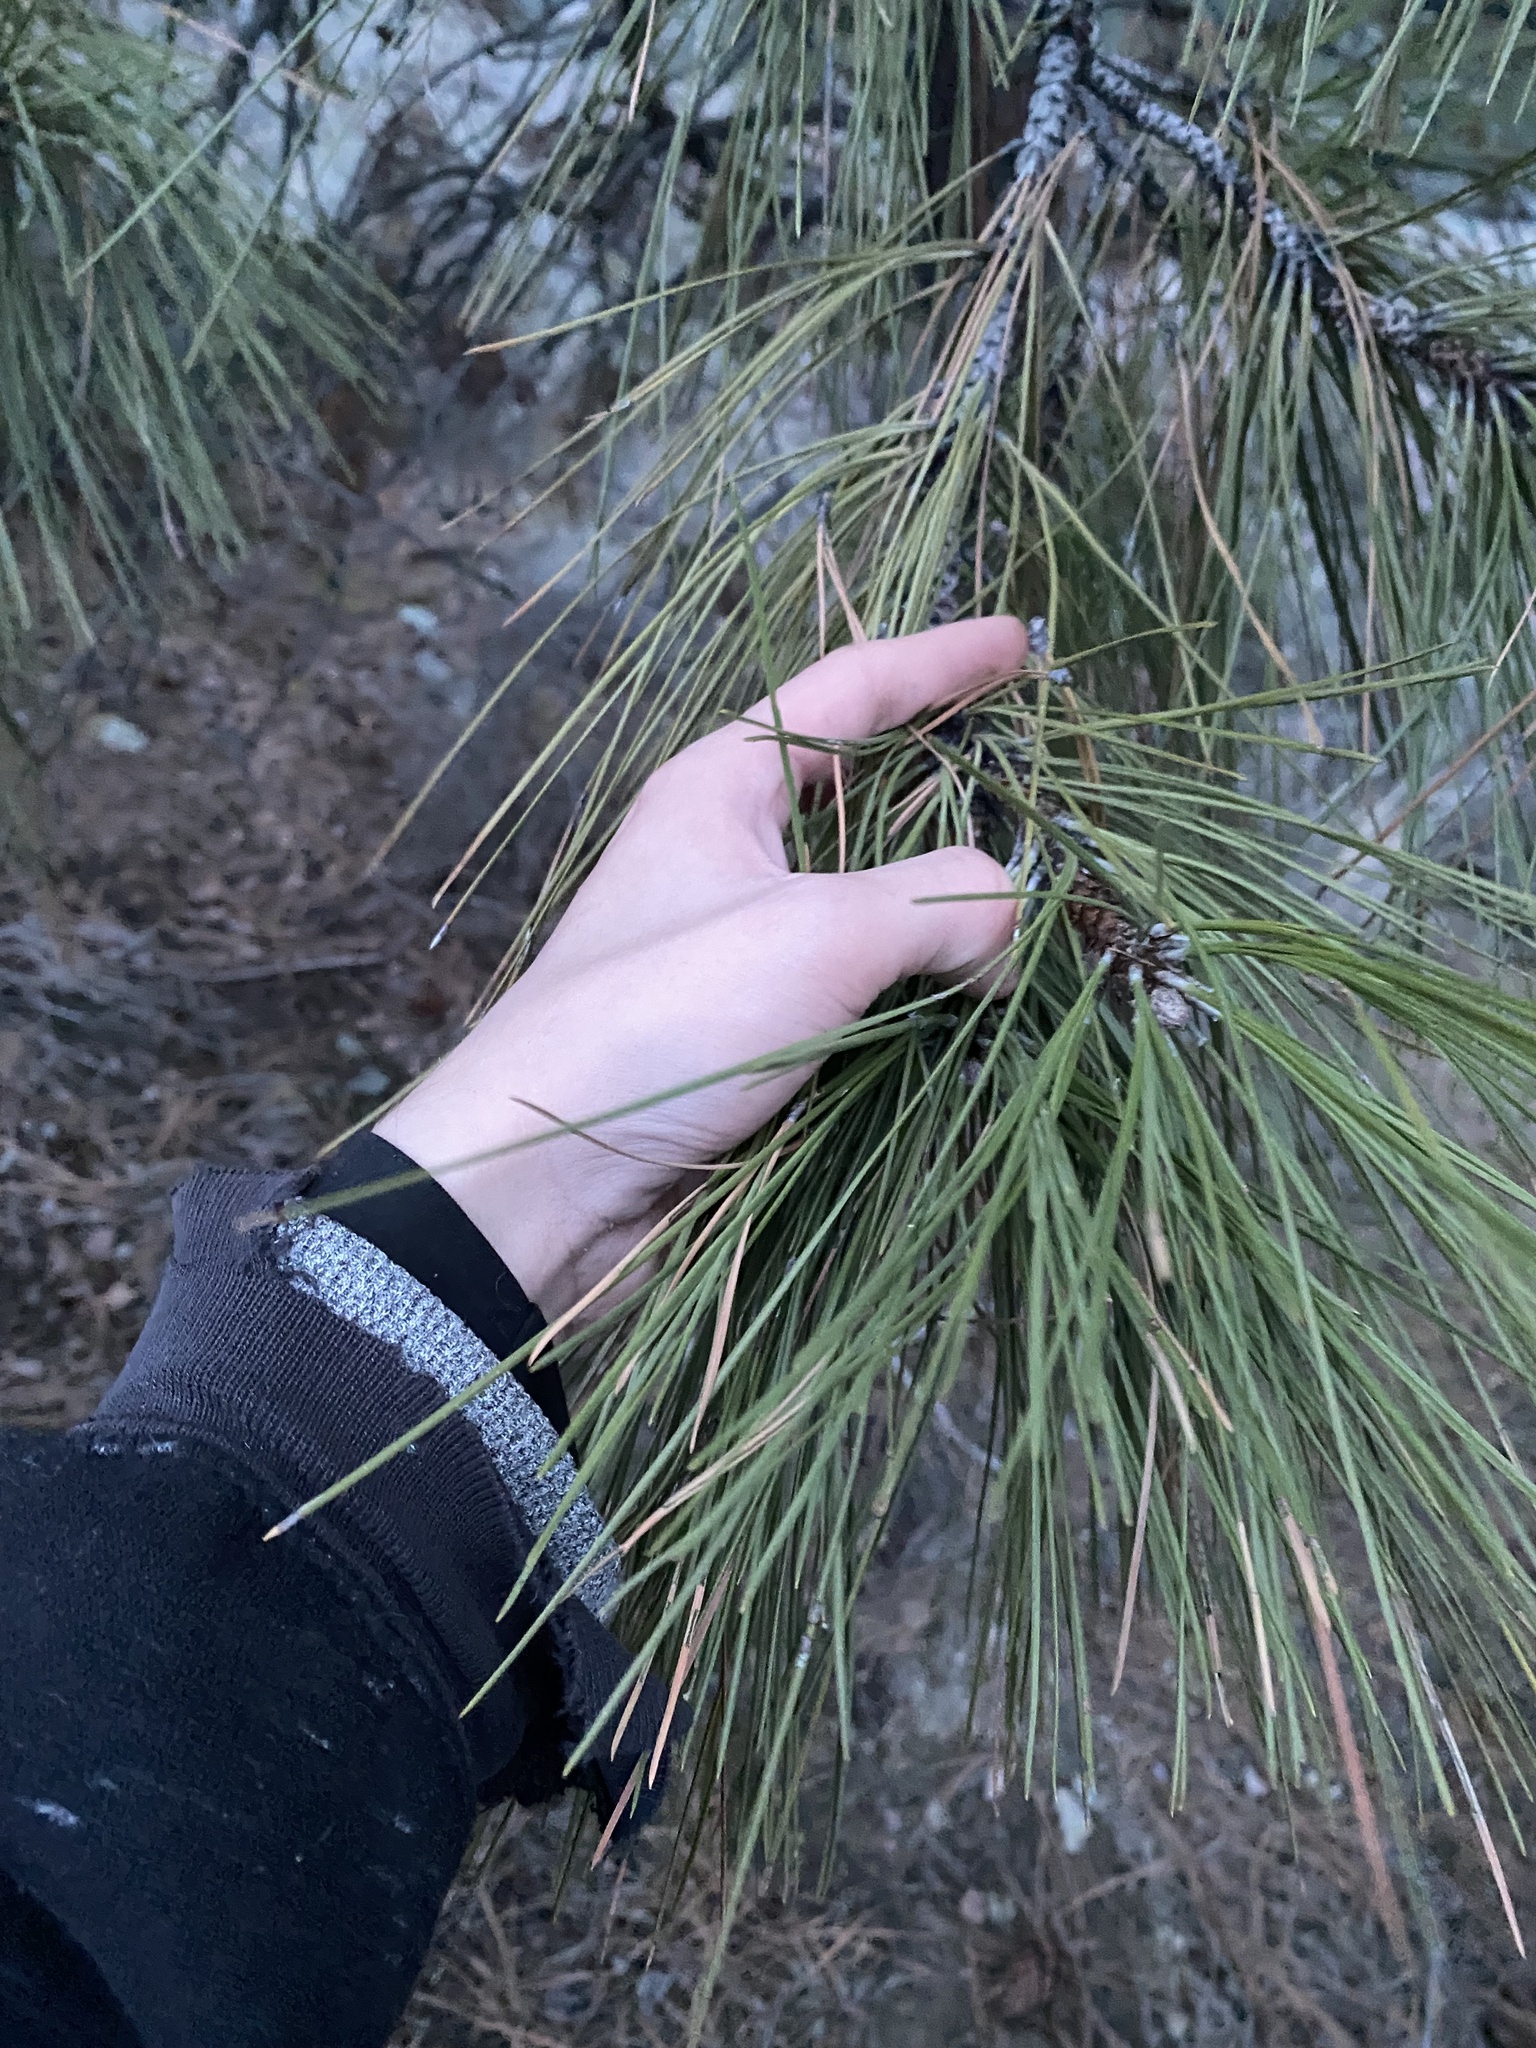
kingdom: Plantae
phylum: Tracheophyta
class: Pinopsida
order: Pinales
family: Pinaceae
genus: Pinus
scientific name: Pinus ponderosa
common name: Western yellow-pine
